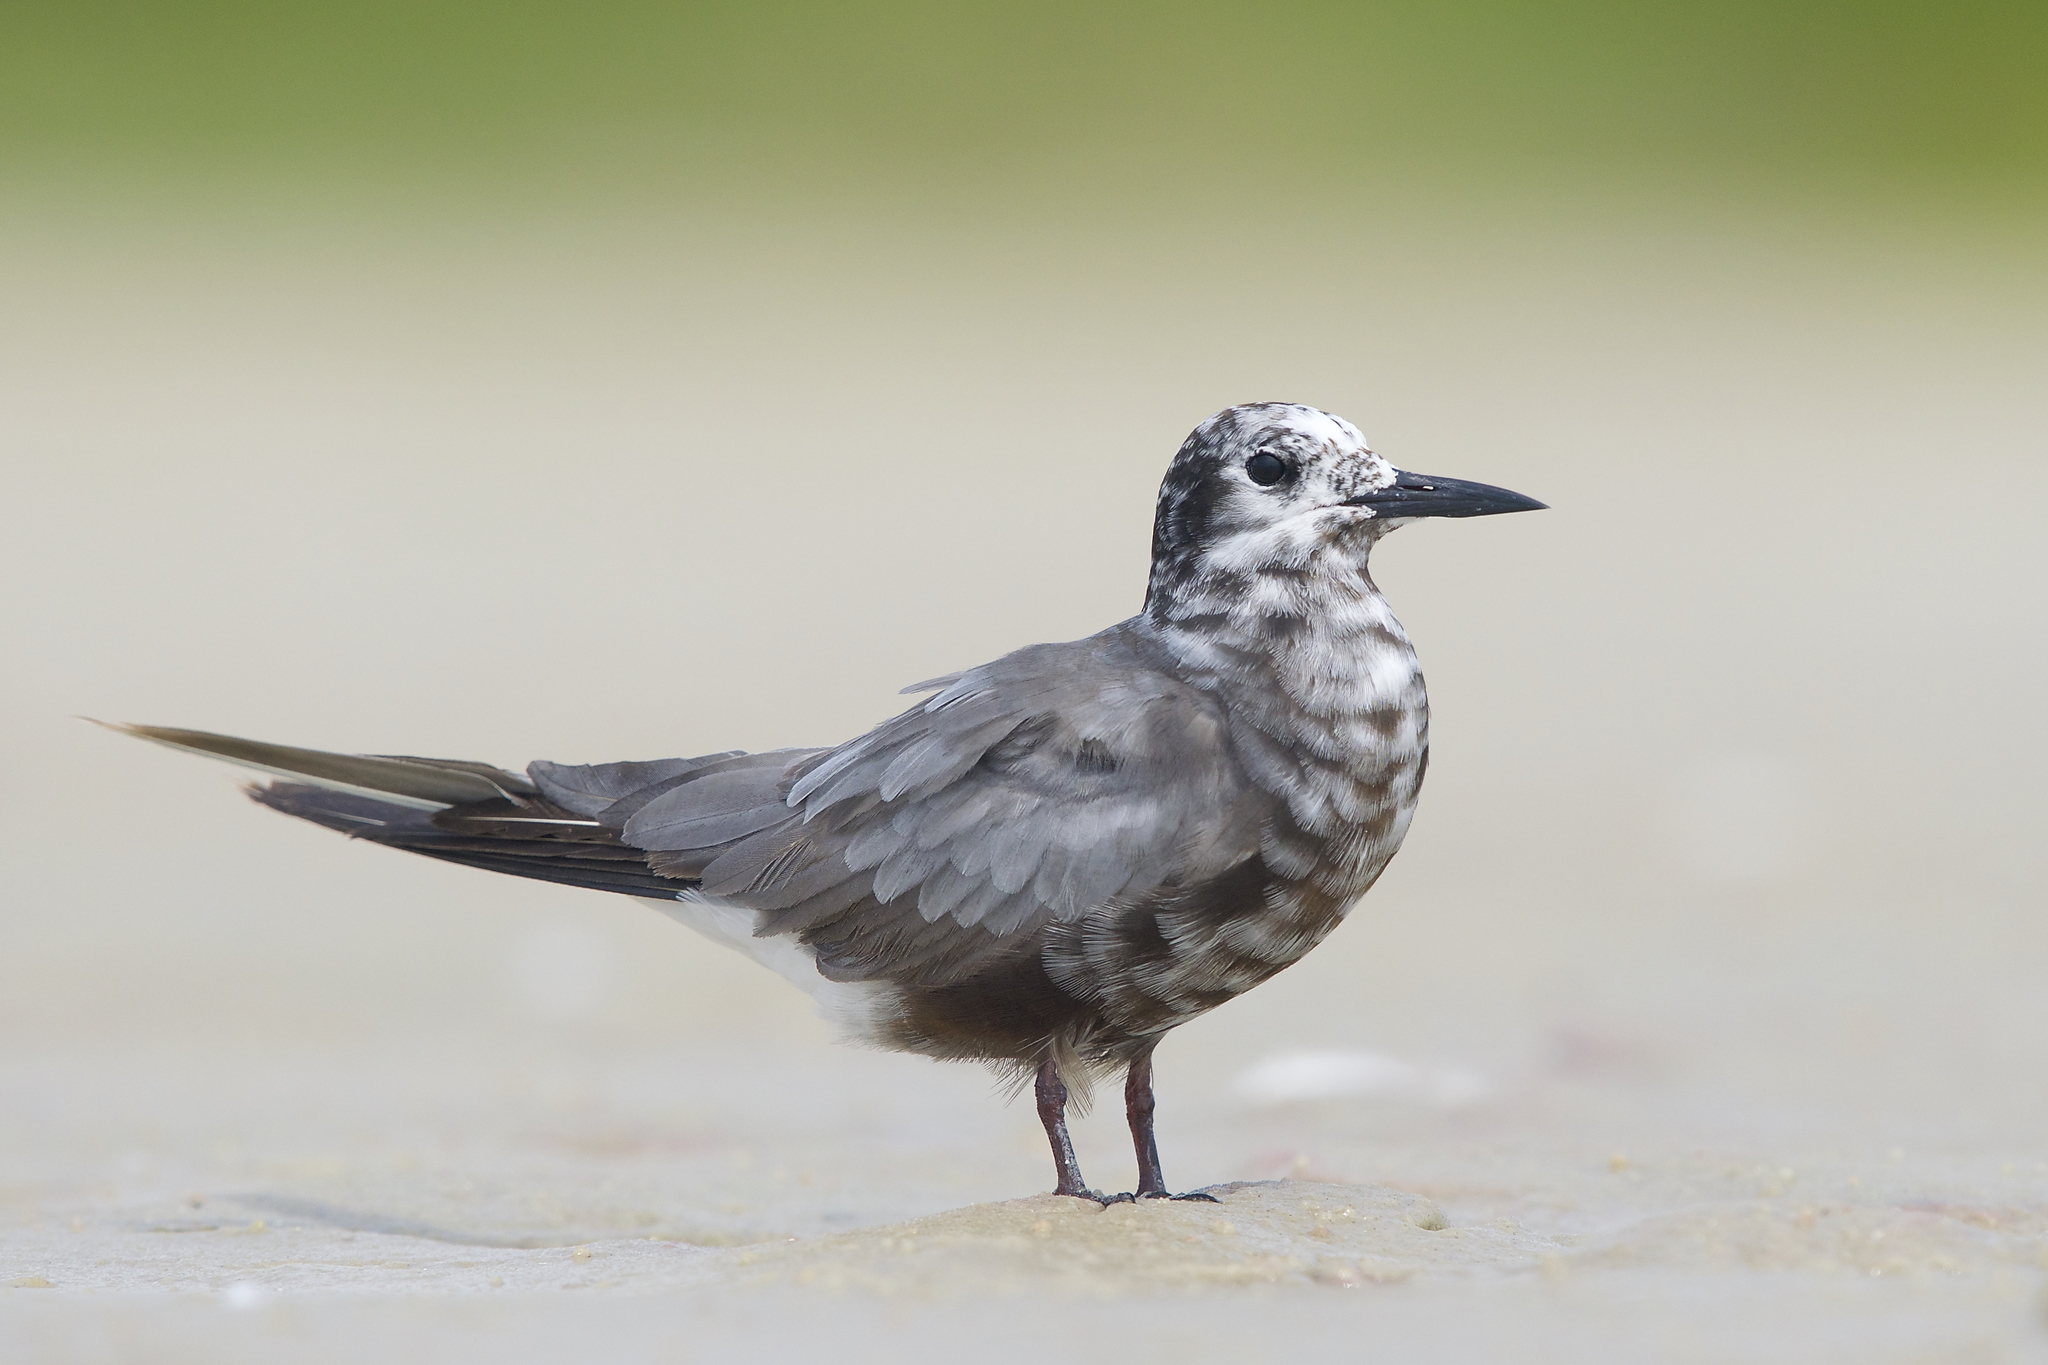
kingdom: Animalia
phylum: Chordata
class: Aves
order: Charadriiformes
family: Laridae
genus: Chlidonias
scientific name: Chlidonias niger
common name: Black tern
